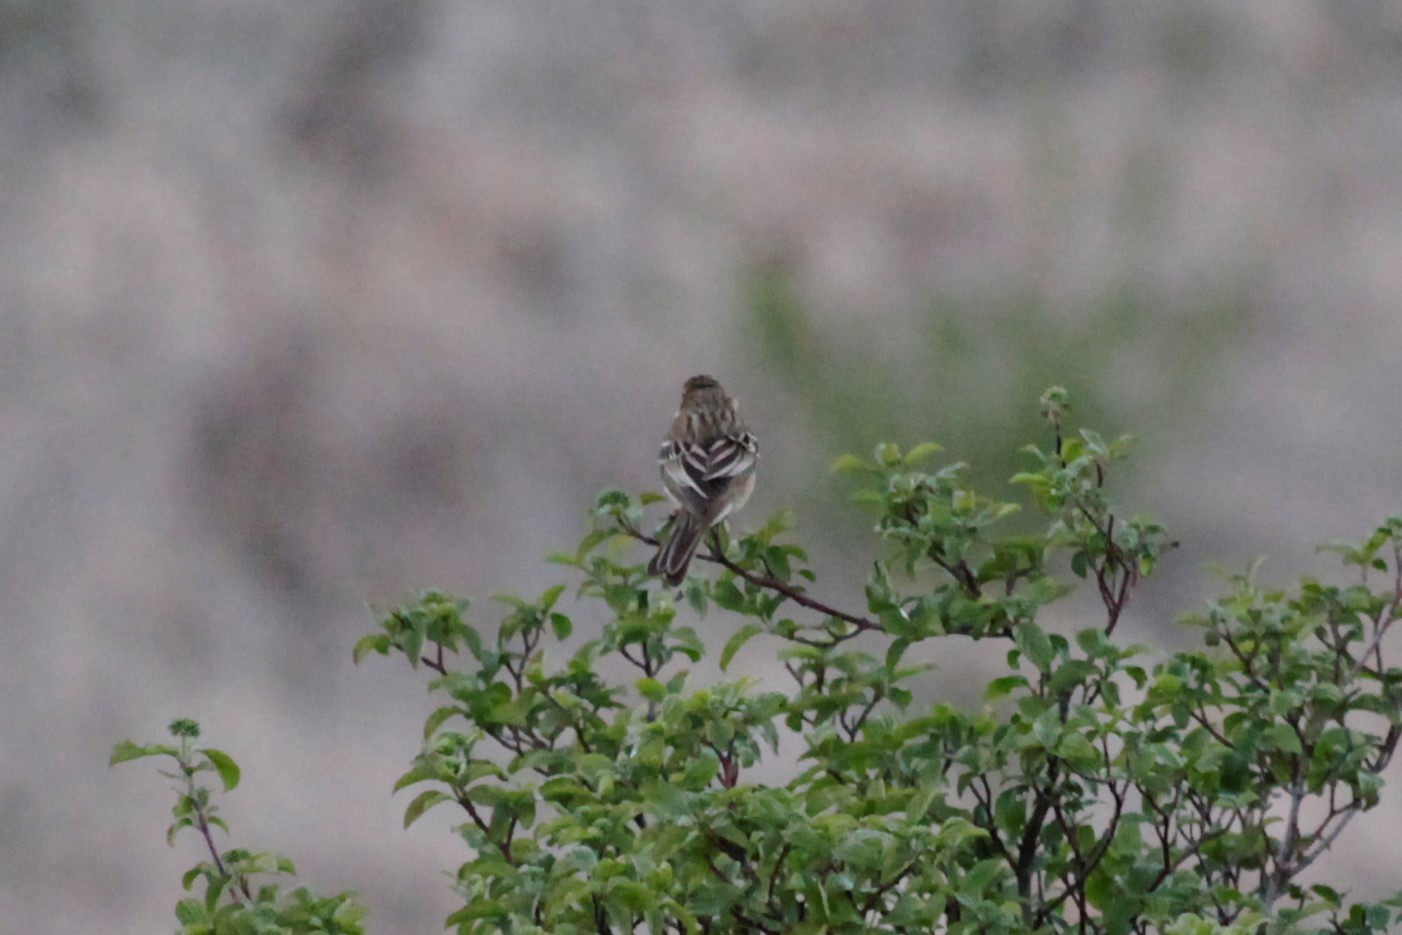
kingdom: Animalia
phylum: Chordata
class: Aves
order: Passeriformes
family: Motacillidae
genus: Anthus
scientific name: Anthus trivialis
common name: Tree pipit
